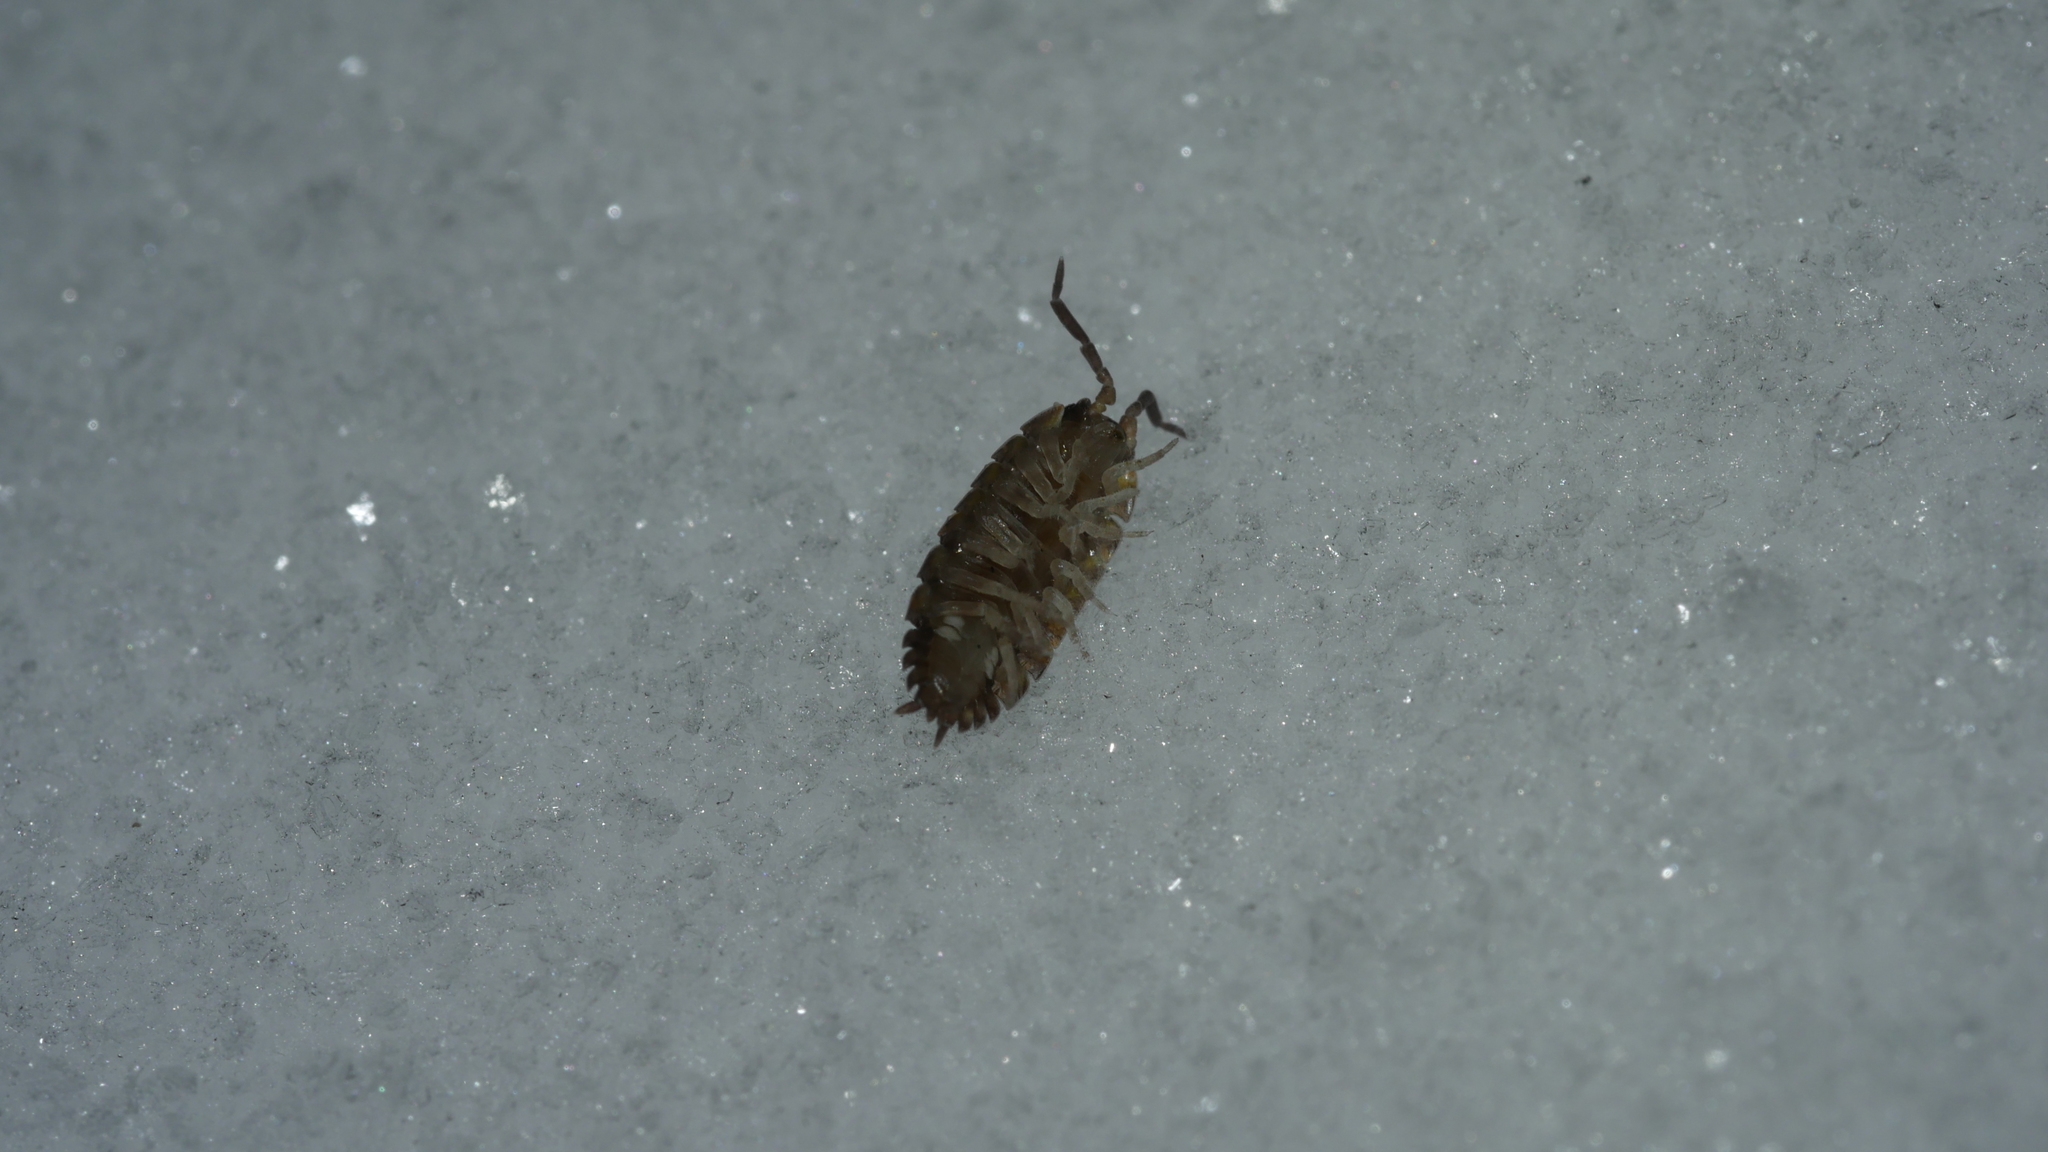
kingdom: Animalia
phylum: Arthropoda
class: Malacostraca
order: Isopoda
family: Porcellionidae
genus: Porcellio
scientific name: Porcellio scaber
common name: Common rough woodlouse
